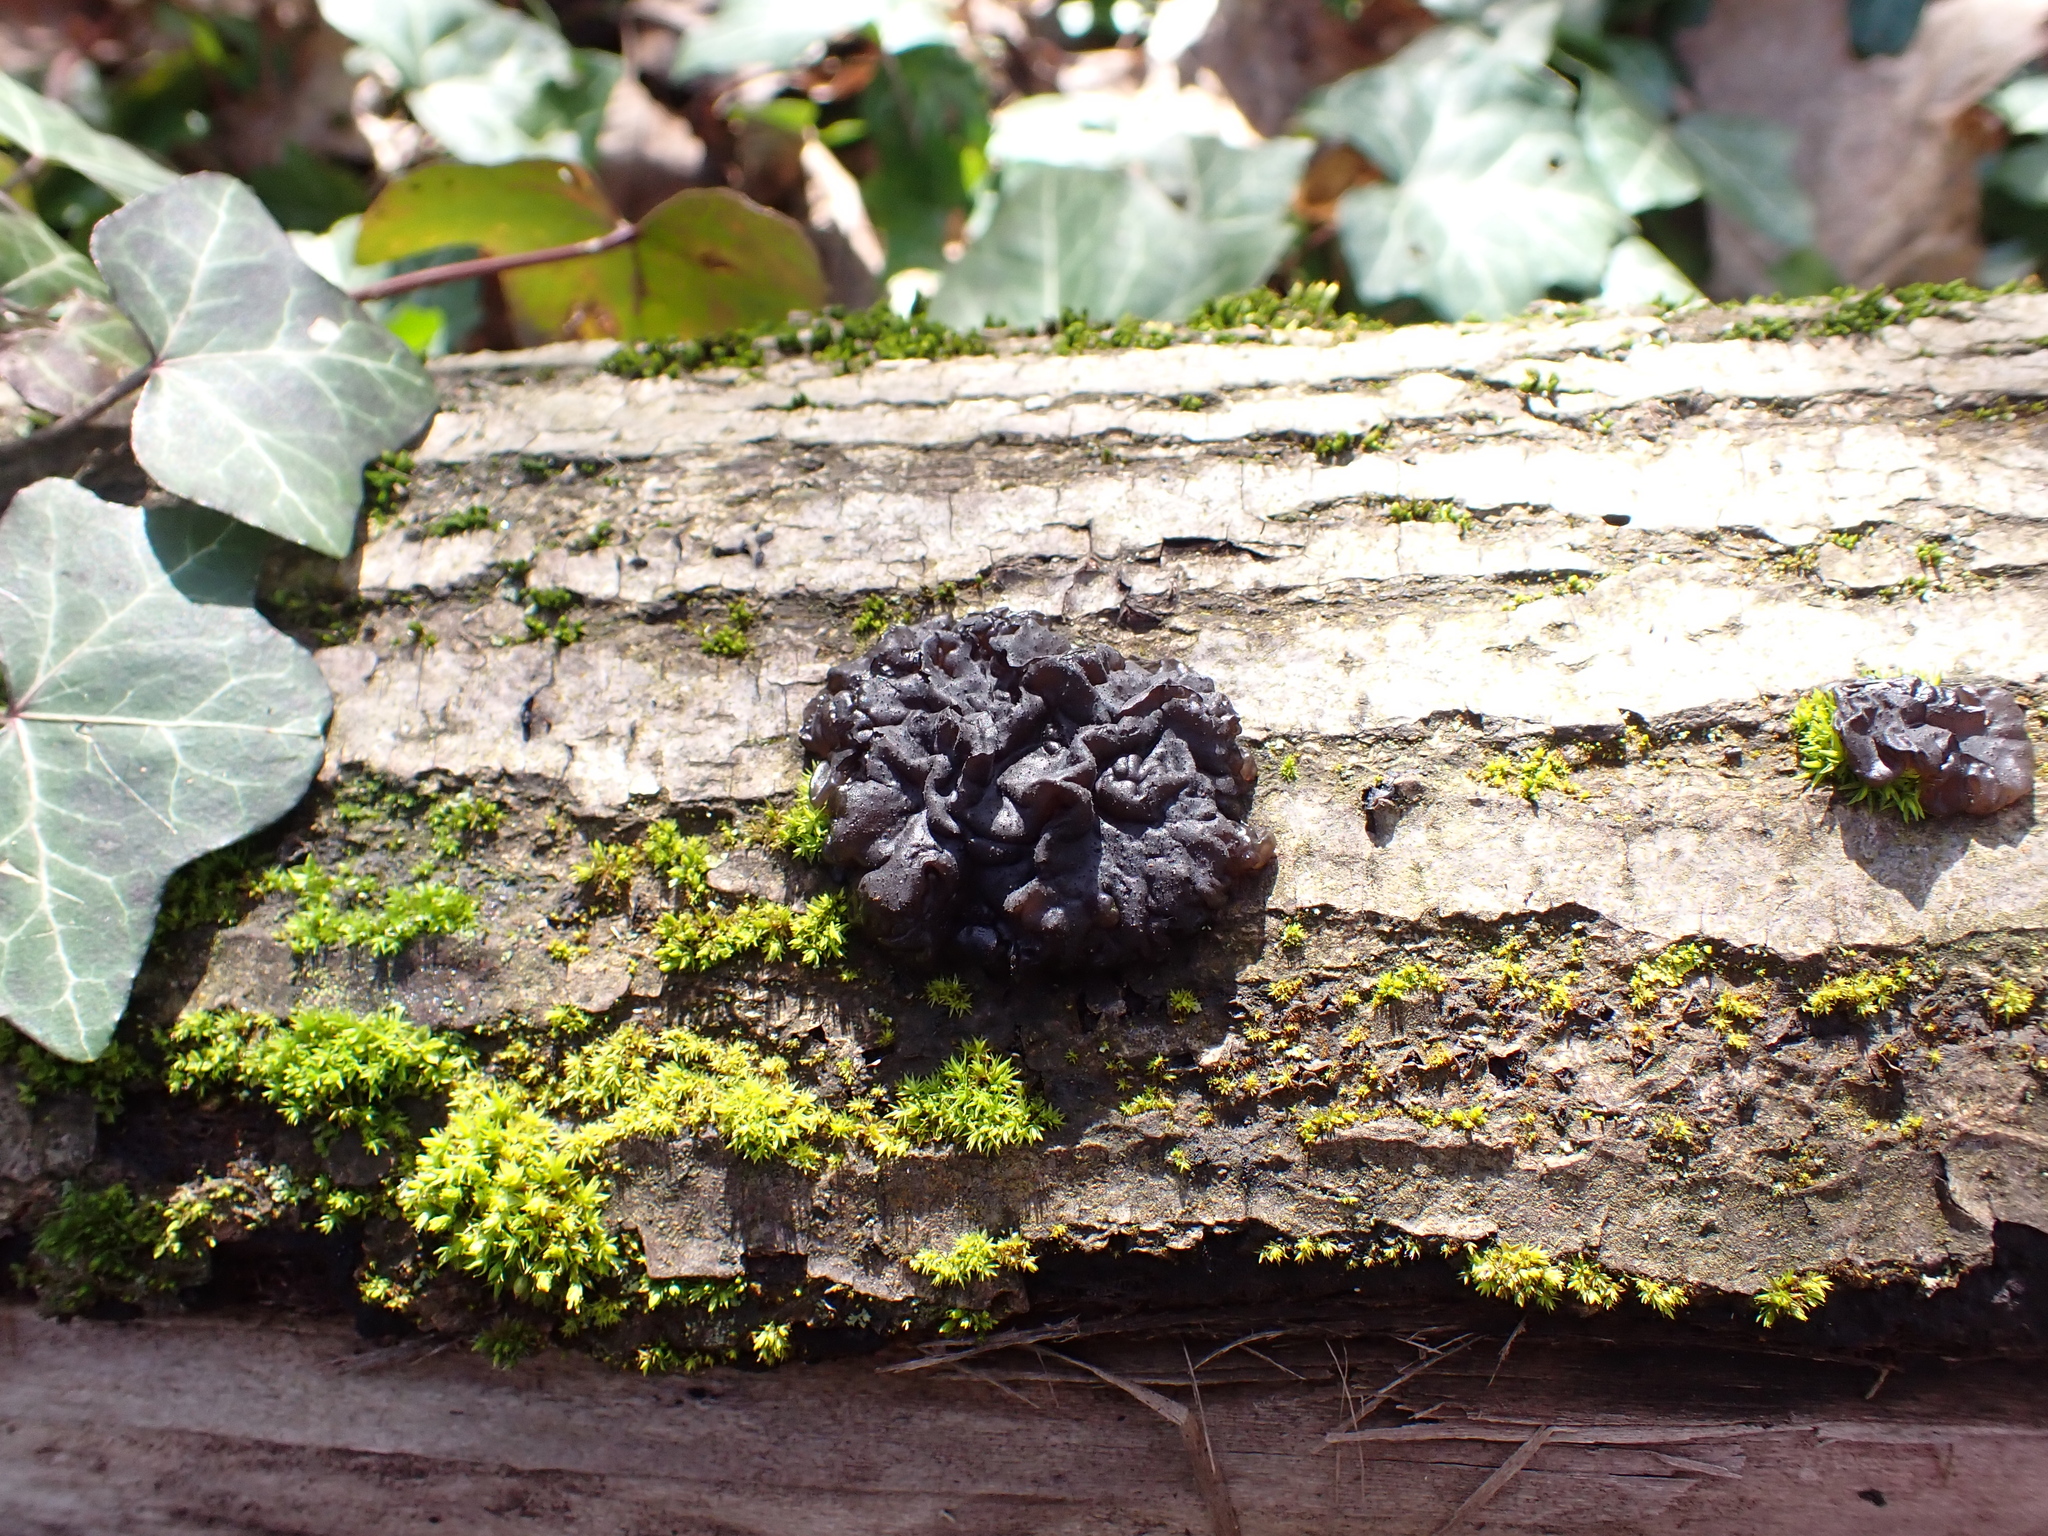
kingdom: Fungi
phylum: Basidiomycota
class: Agaricomycetes
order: Auriculariales
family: Auriculariaceae
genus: Exidia
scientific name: Exidia nigricans
